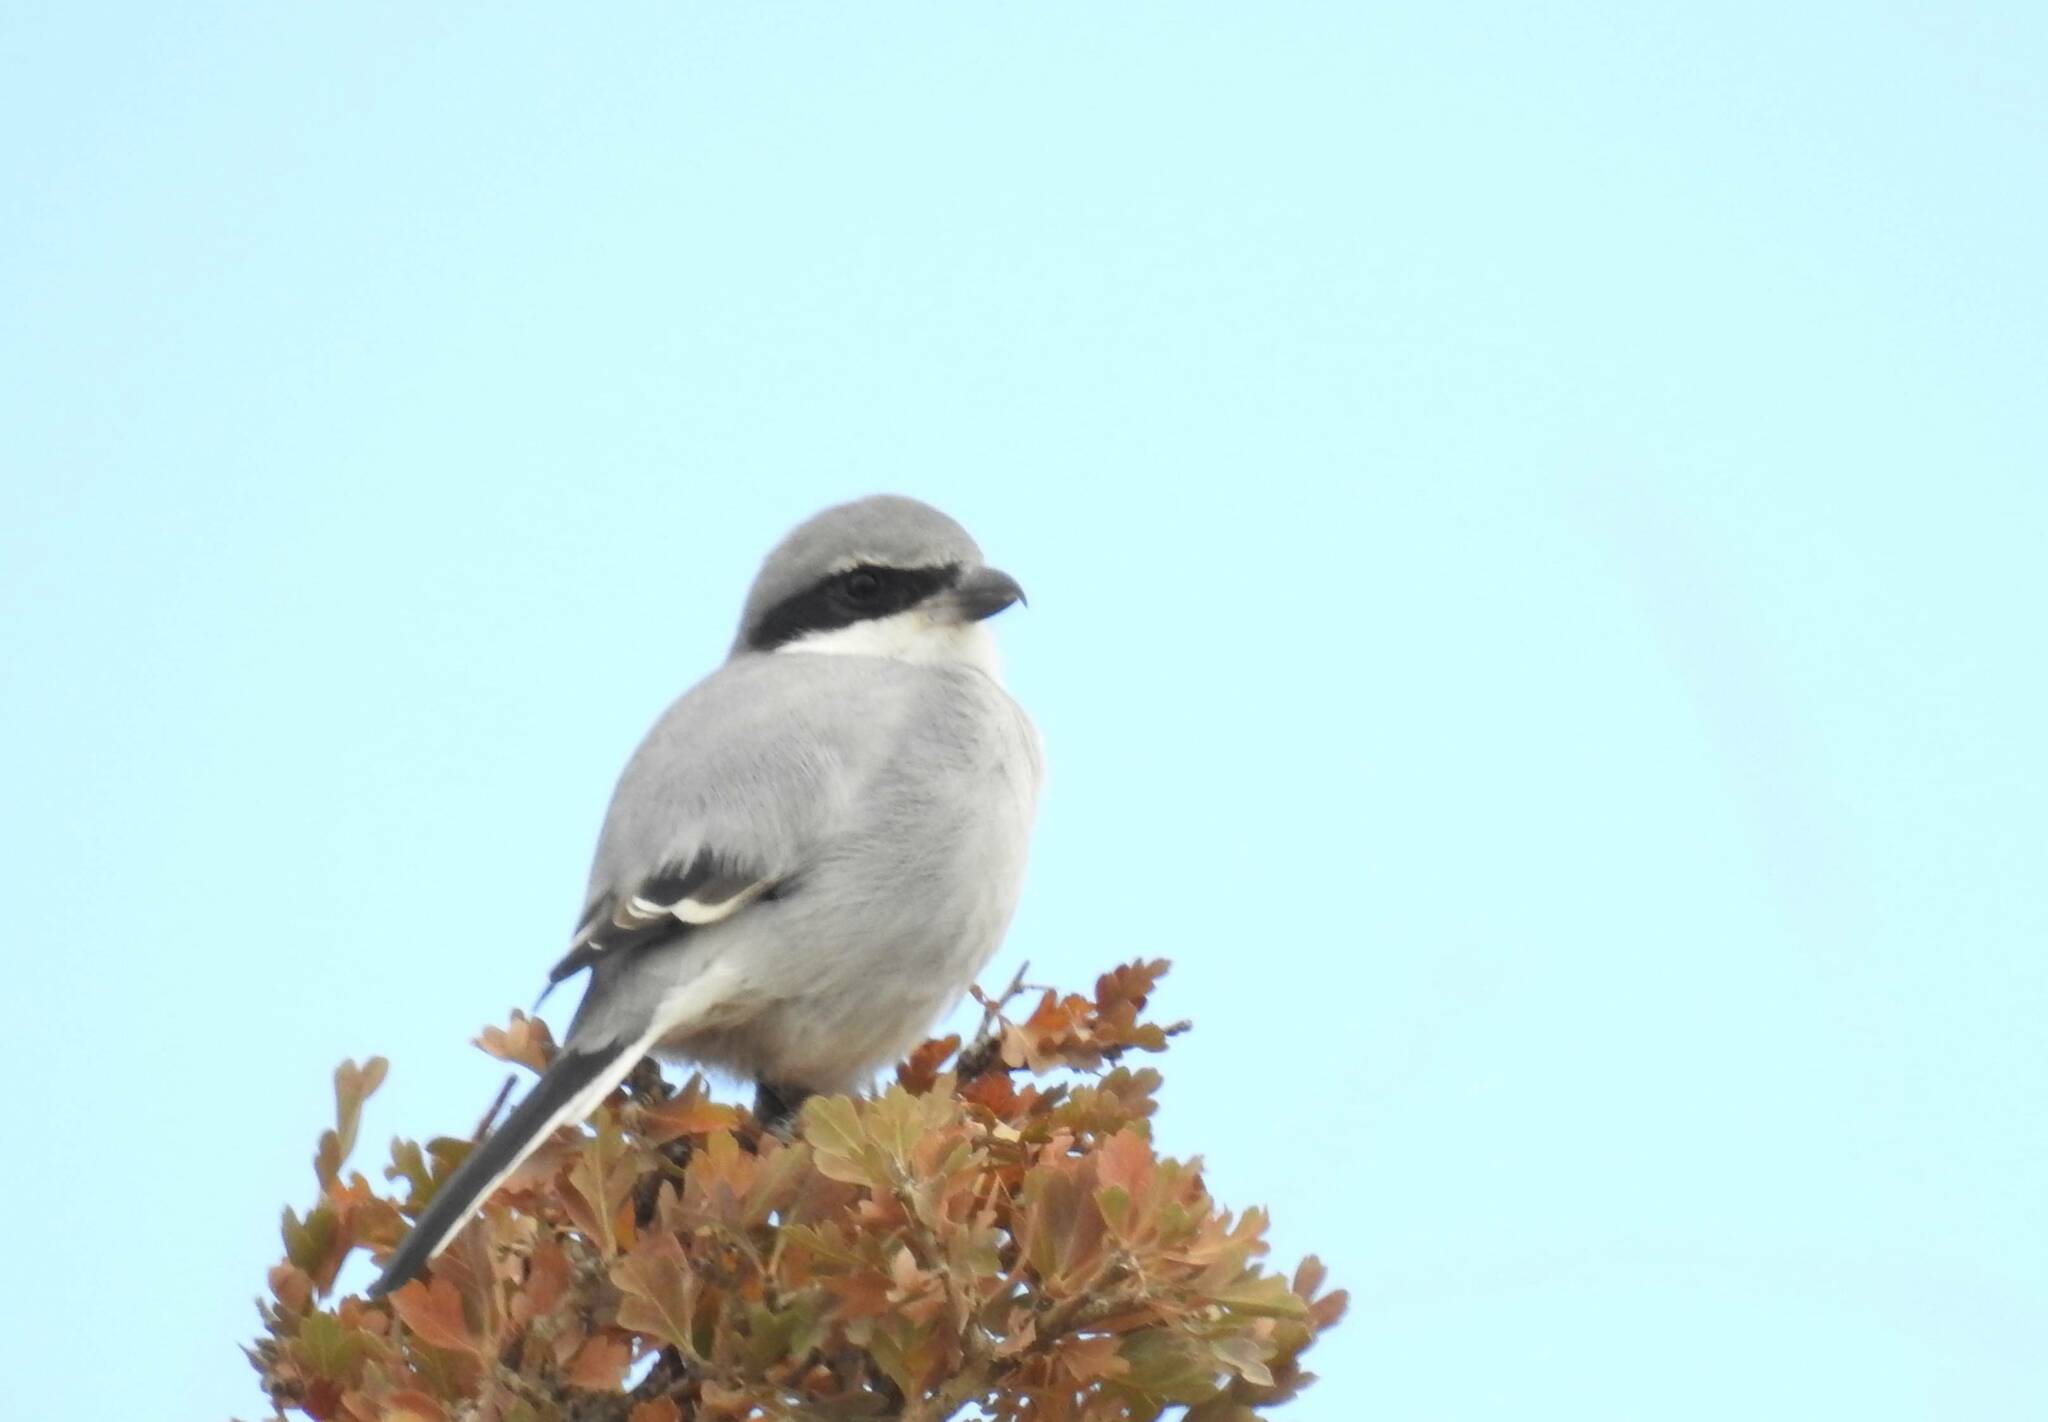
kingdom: Animalia
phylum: Chordata
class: Aves
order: Passeriformes
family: Laniidae
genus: Lanius
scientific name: Lanius excubitor
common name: Great grey shrike
